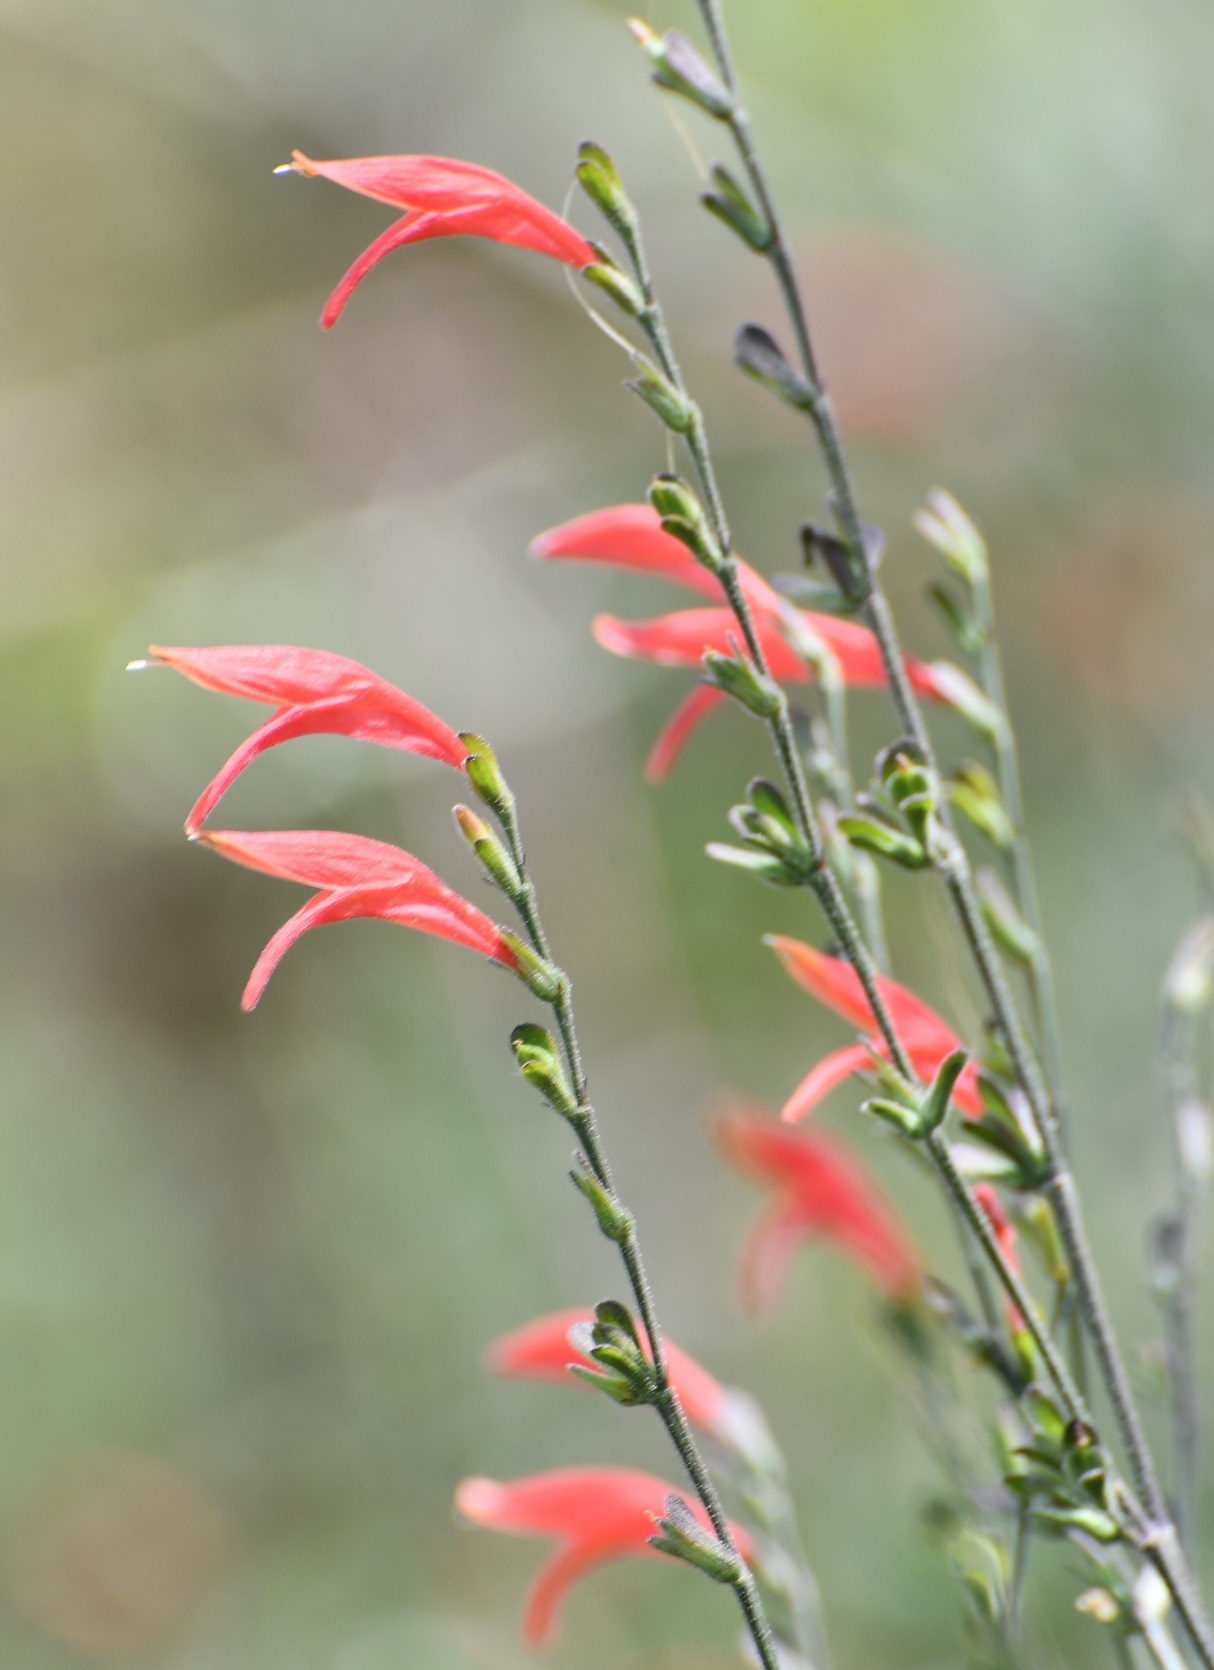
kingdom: Plantae
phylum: Tracheophyta
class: Magnoliopsida
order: Lamiales
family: Acanthaceae
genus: Dicliptera
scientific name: Dicliptera sexangularis
